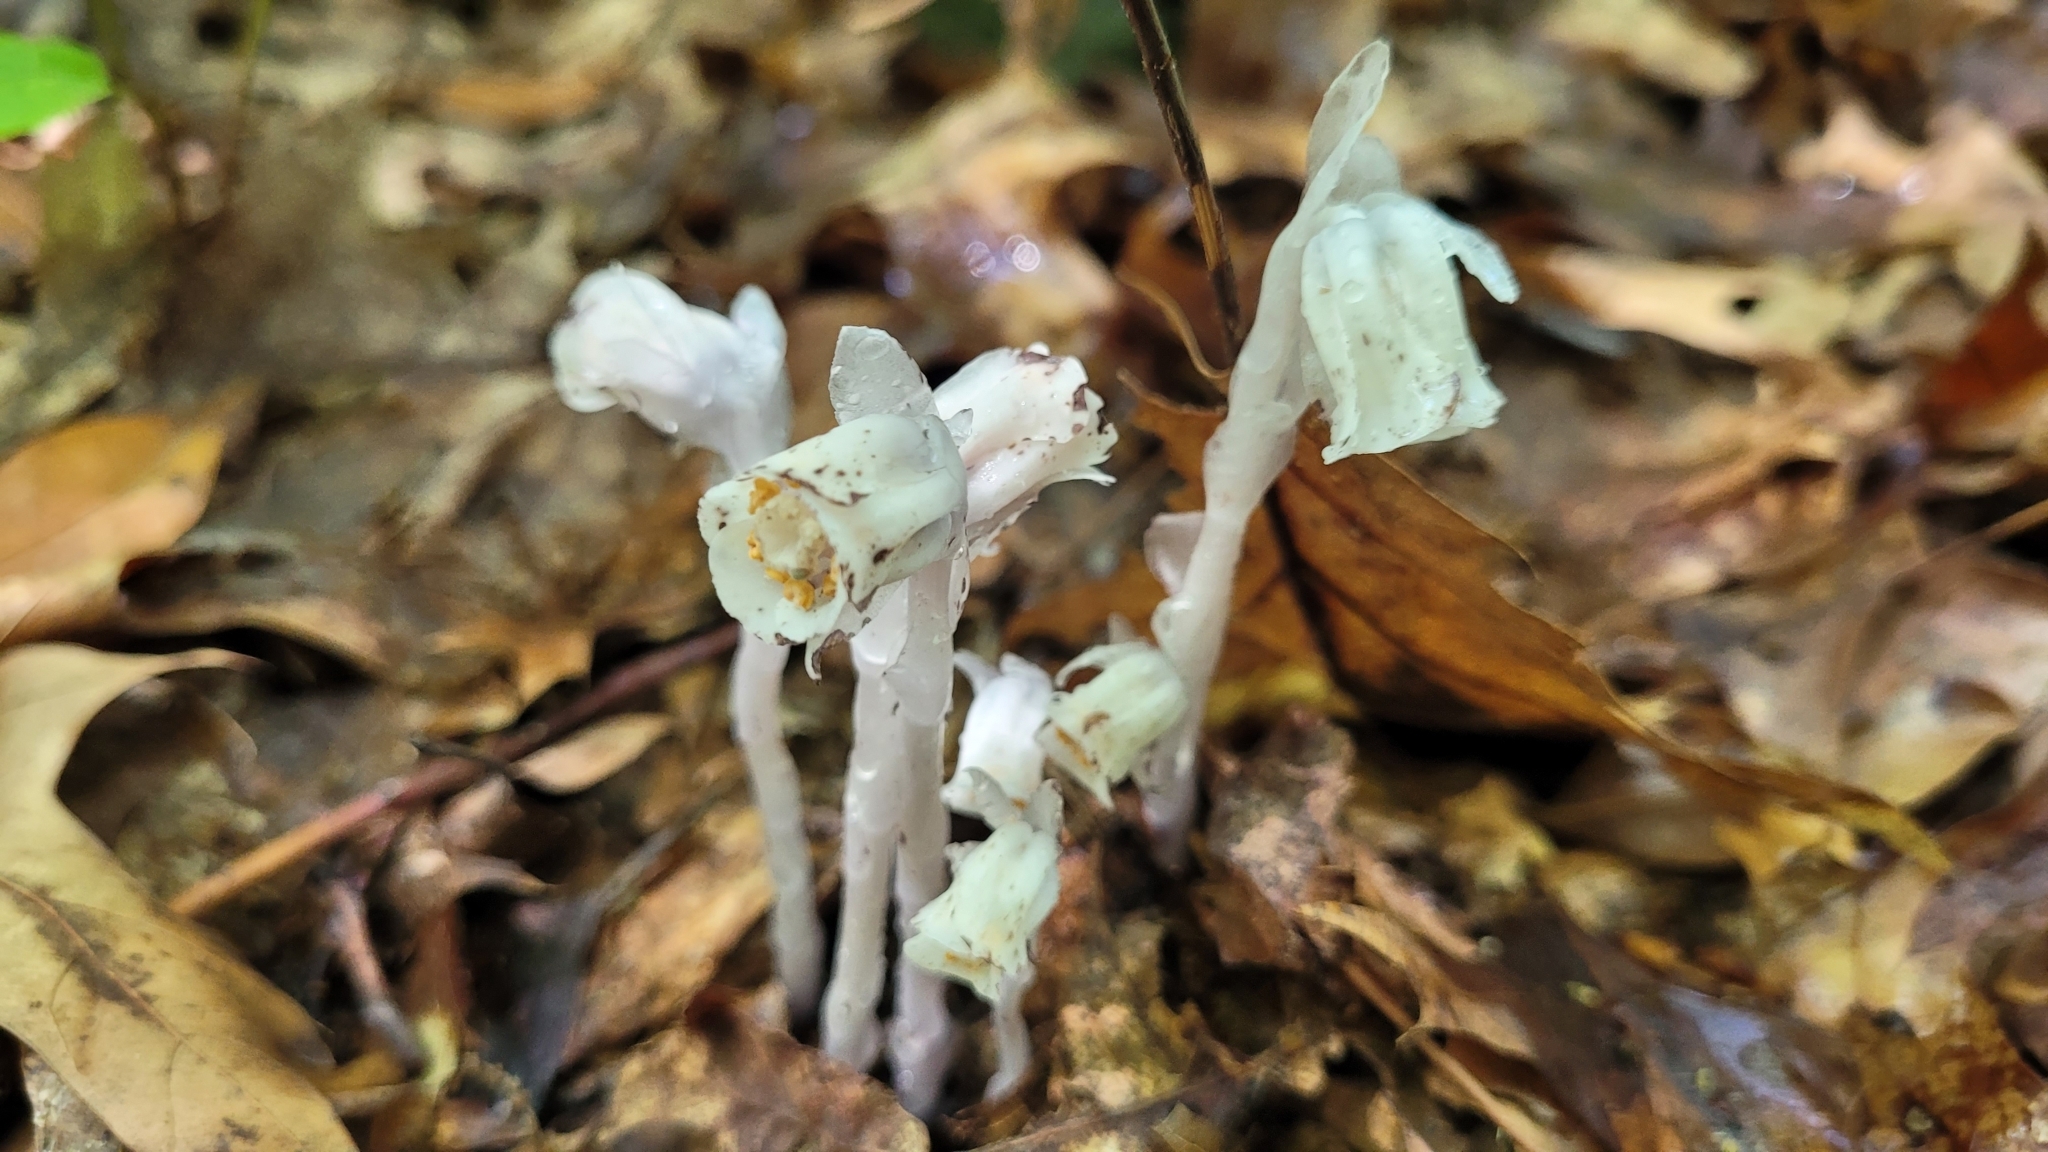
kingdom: Plantae
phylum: Tracheophyta
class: Magnoliopsida
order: Ericales
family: Ericaceae
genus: Monotropa
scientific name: Monotropa uniflora
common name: Convulsion root
